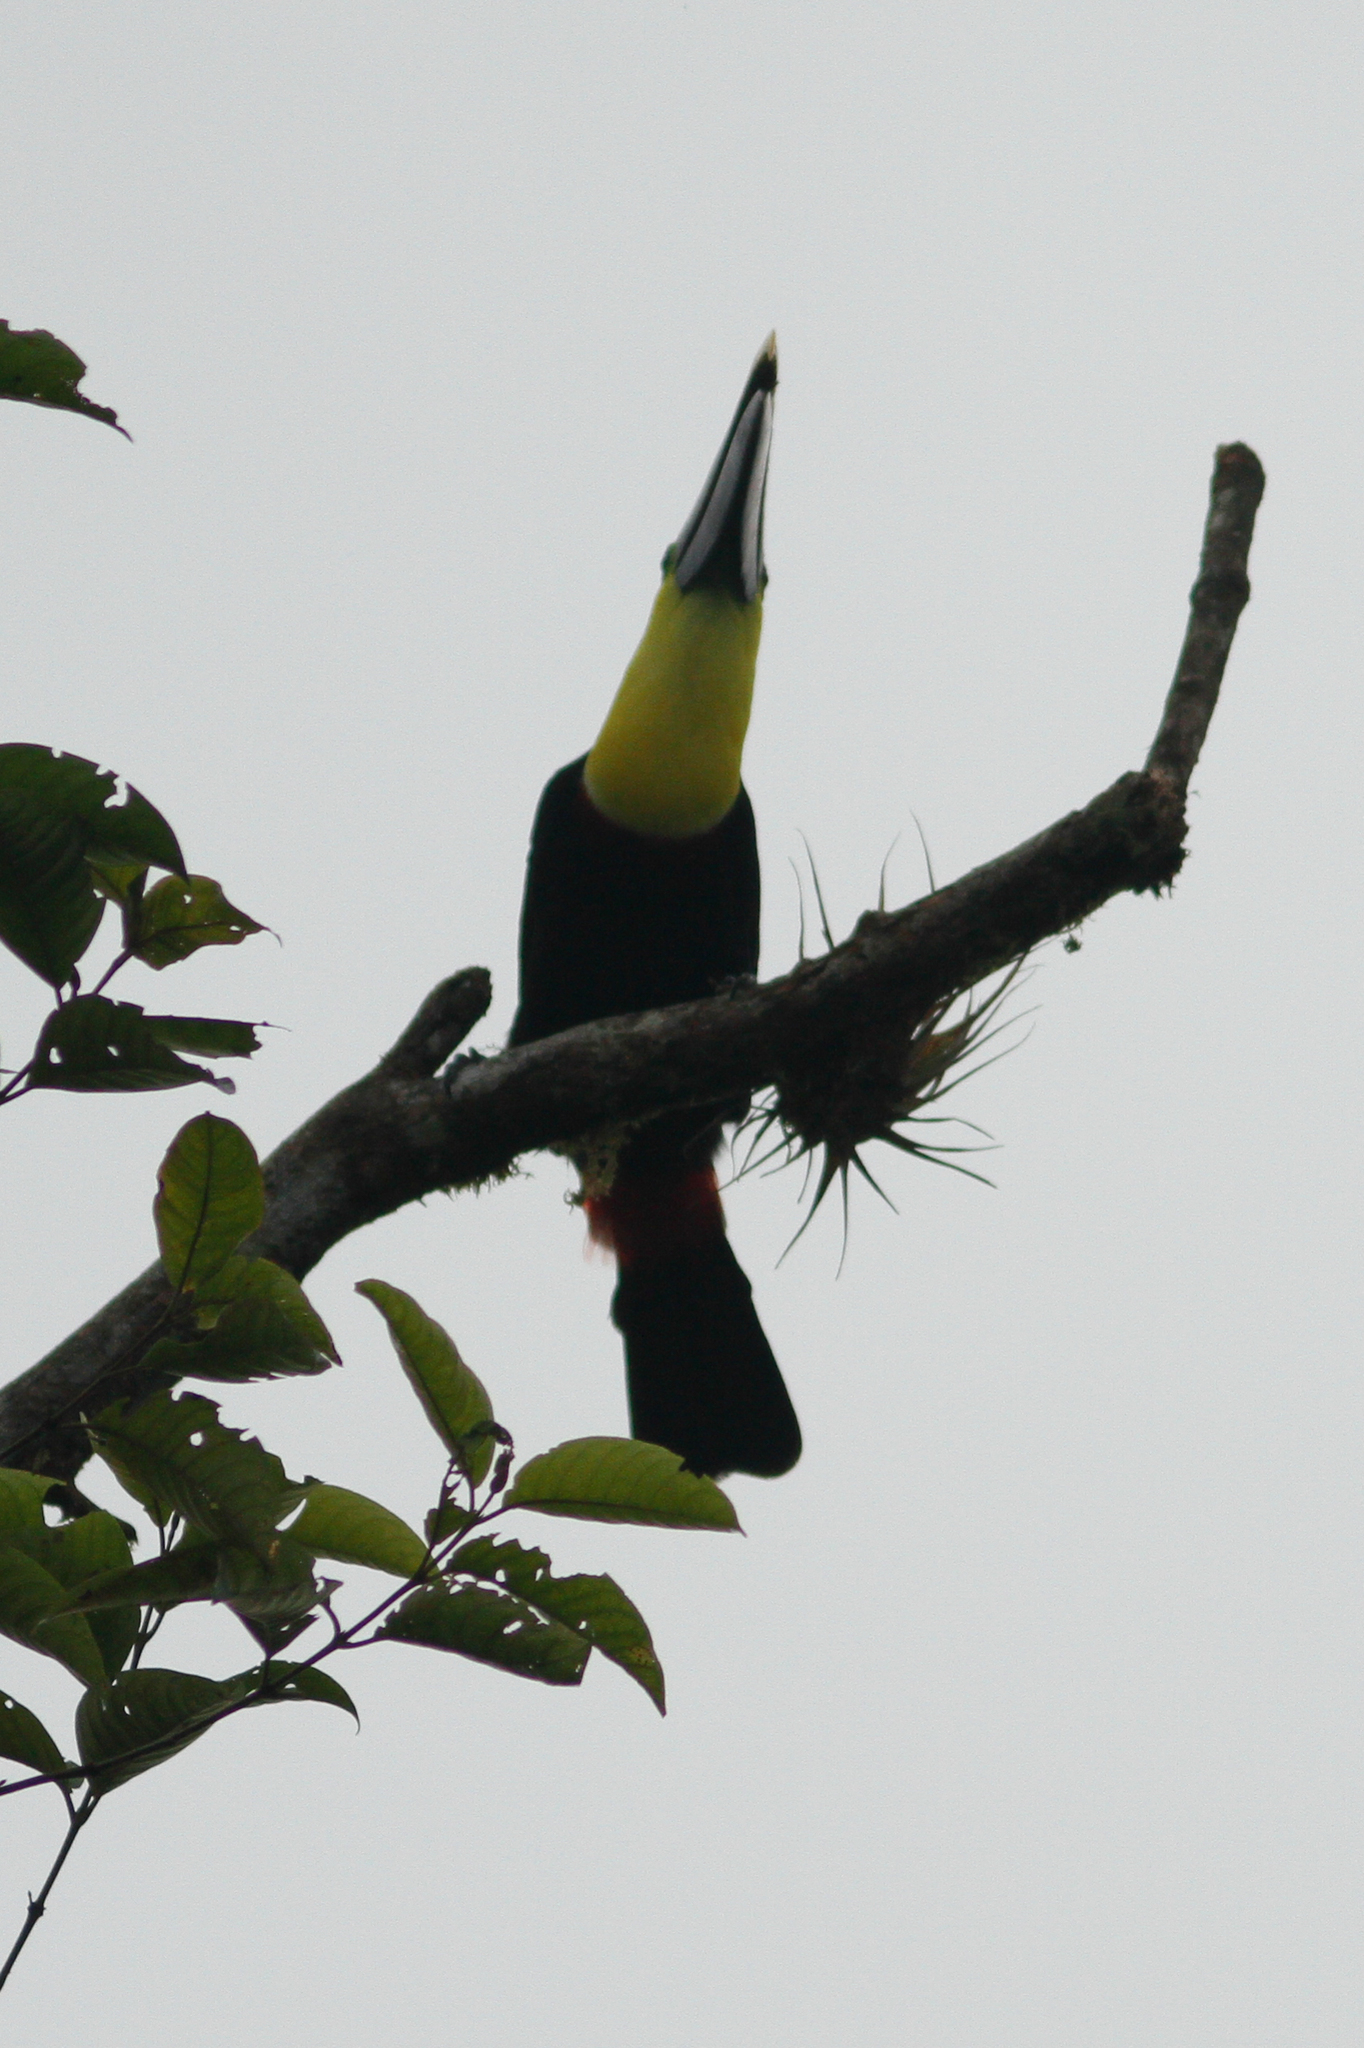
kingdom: Animalia
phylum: Chordata
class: Aves
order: Piciformes
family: Ramphastidae
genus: Ramphastos
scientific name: Ramphastos brevis
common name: Choco toucan
